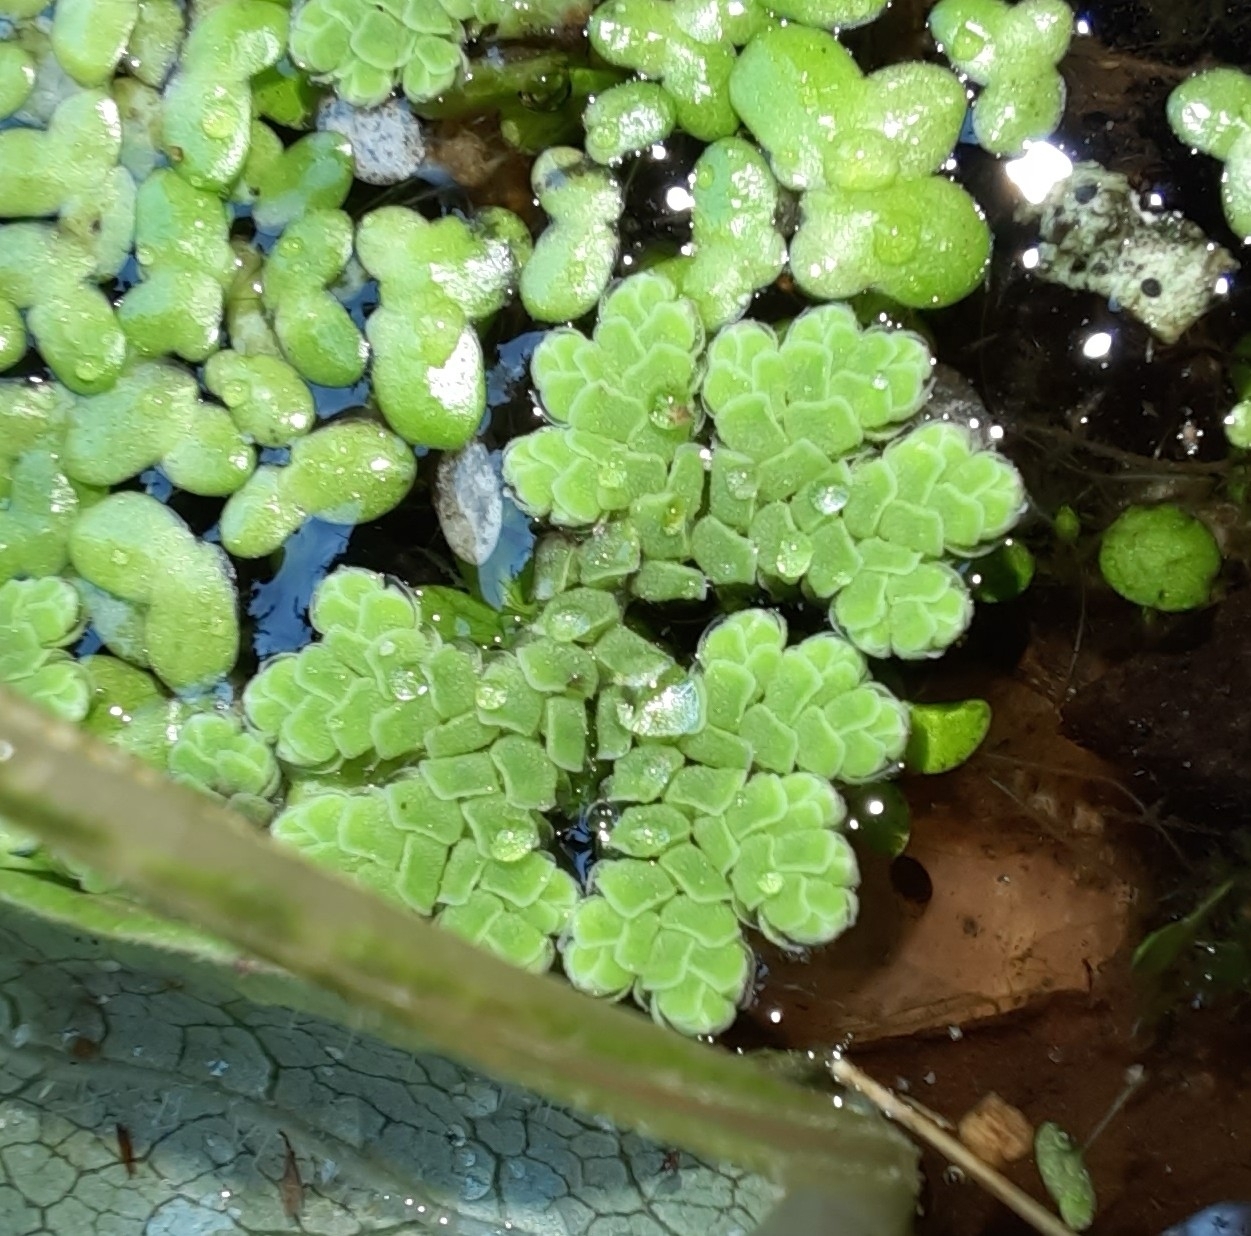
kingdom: Plantae
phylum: Tracheophyta
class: Polypodiopsida
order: Salviniales
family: Salviniaceae
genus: Azolla
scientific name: Azolla rubra
